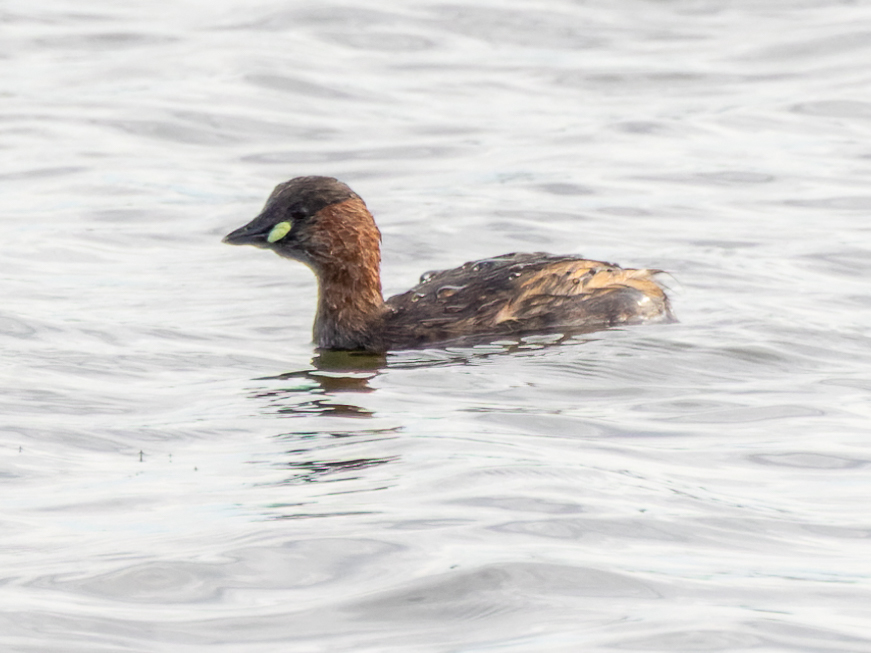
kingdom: Animalia
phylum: Chordata
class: Aves
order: Podicipediformes
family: Podicipedidae
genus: Tachybaptus
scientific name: Tachybaptus ruficollis
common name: Little grebe
